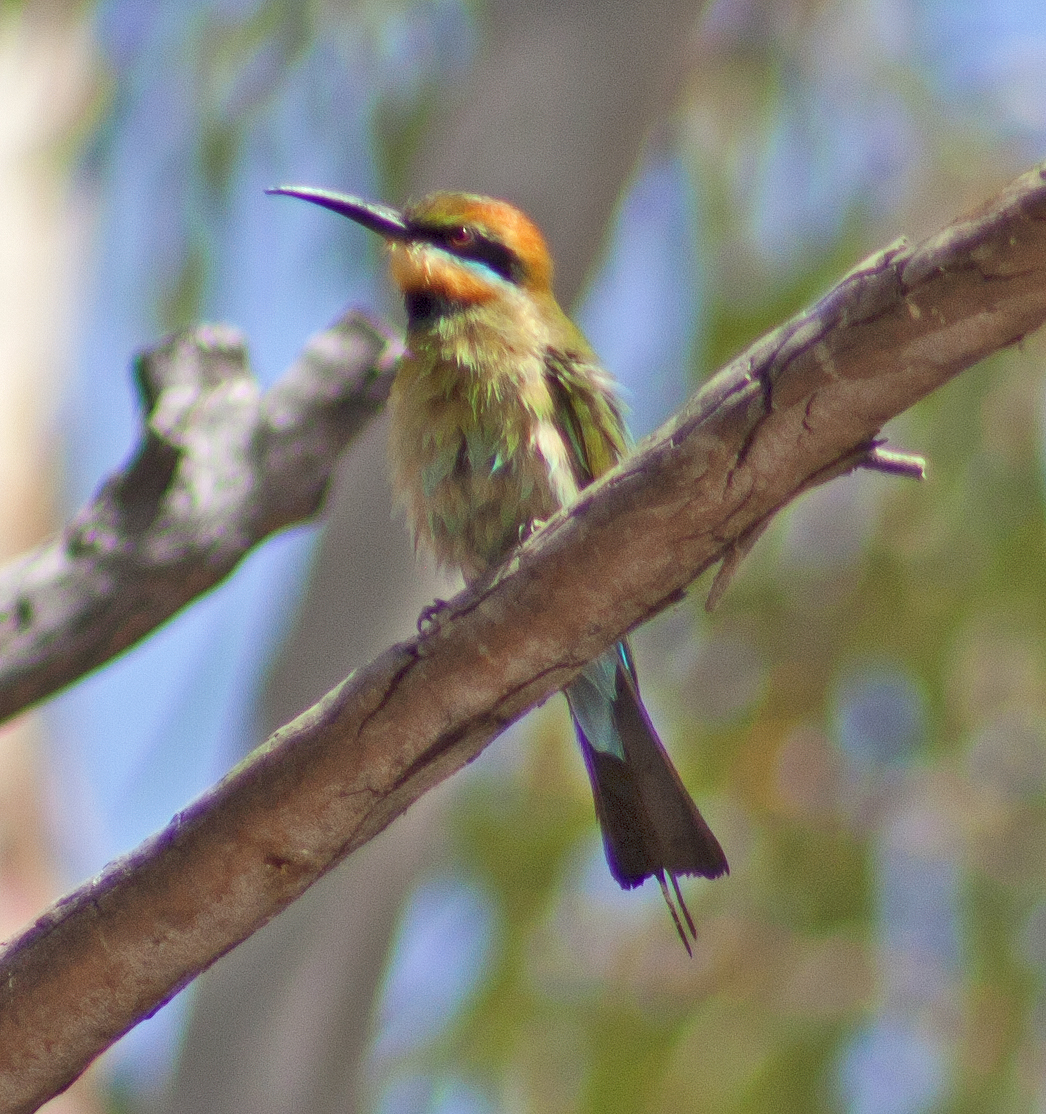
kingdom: Animalia
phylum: Chordata
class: Aves
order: Coraciiformes
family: Meropidae
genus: Merops
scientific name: Merops ornatus
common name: Rainbow bee-eater
